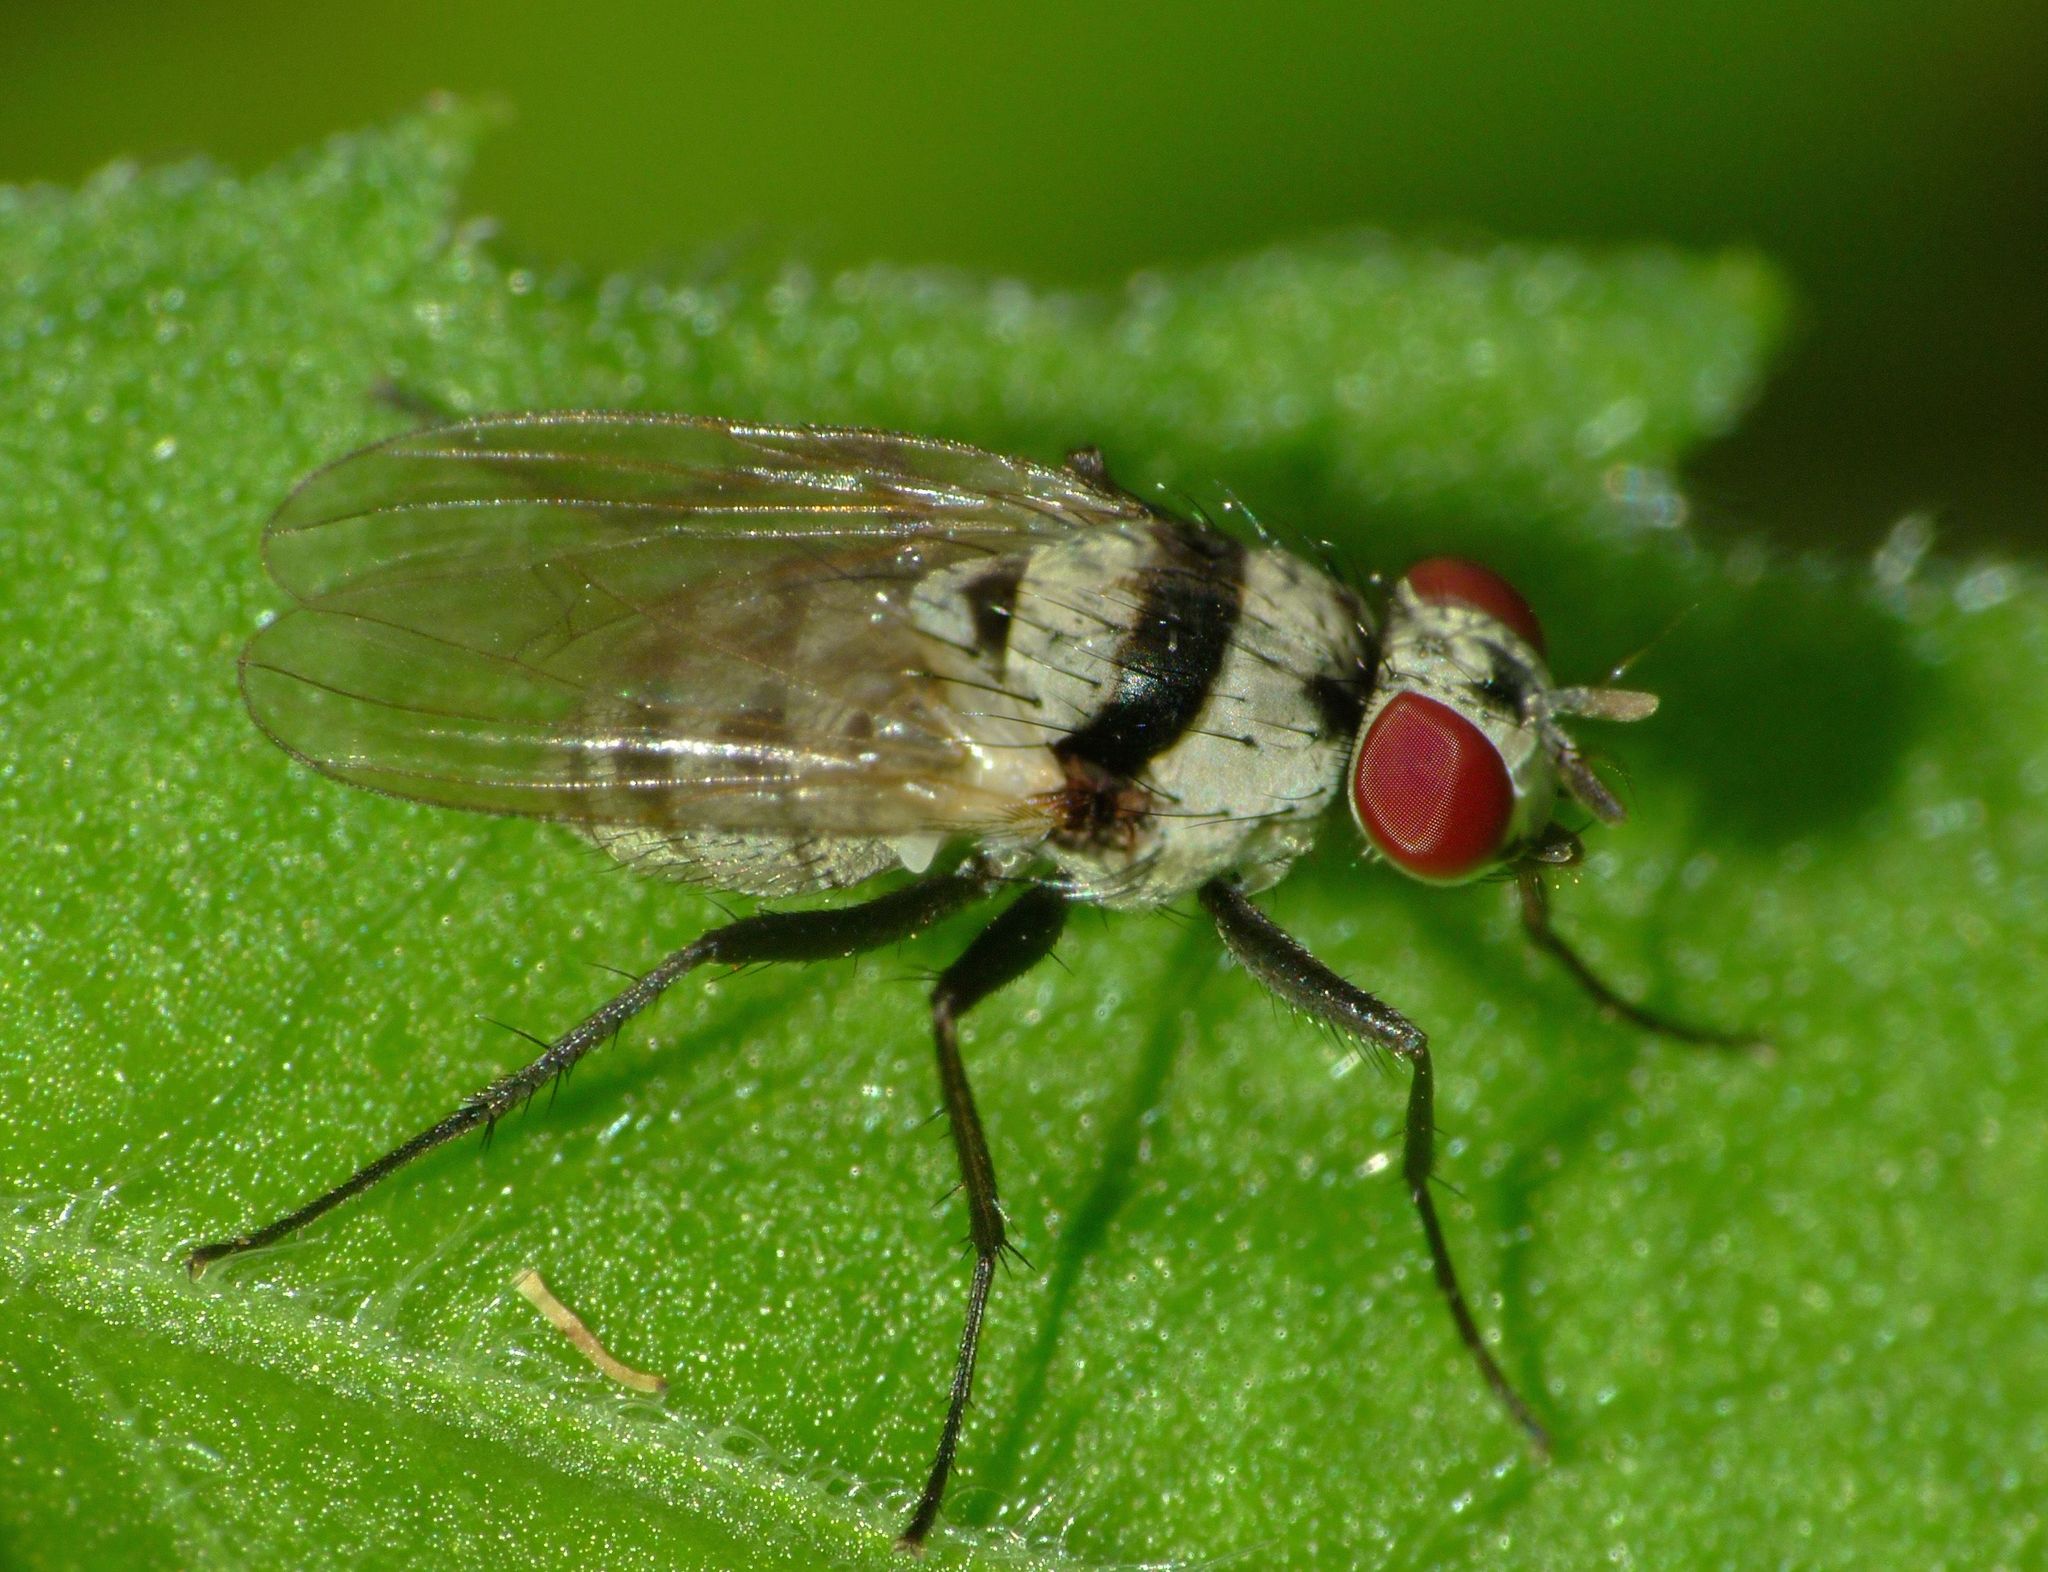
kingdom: Animalia
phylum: Arthropoda
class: Insecta
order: Diptera
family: Anthomyiidae
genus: Anthomyia
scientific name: Anthomyia silvestris
